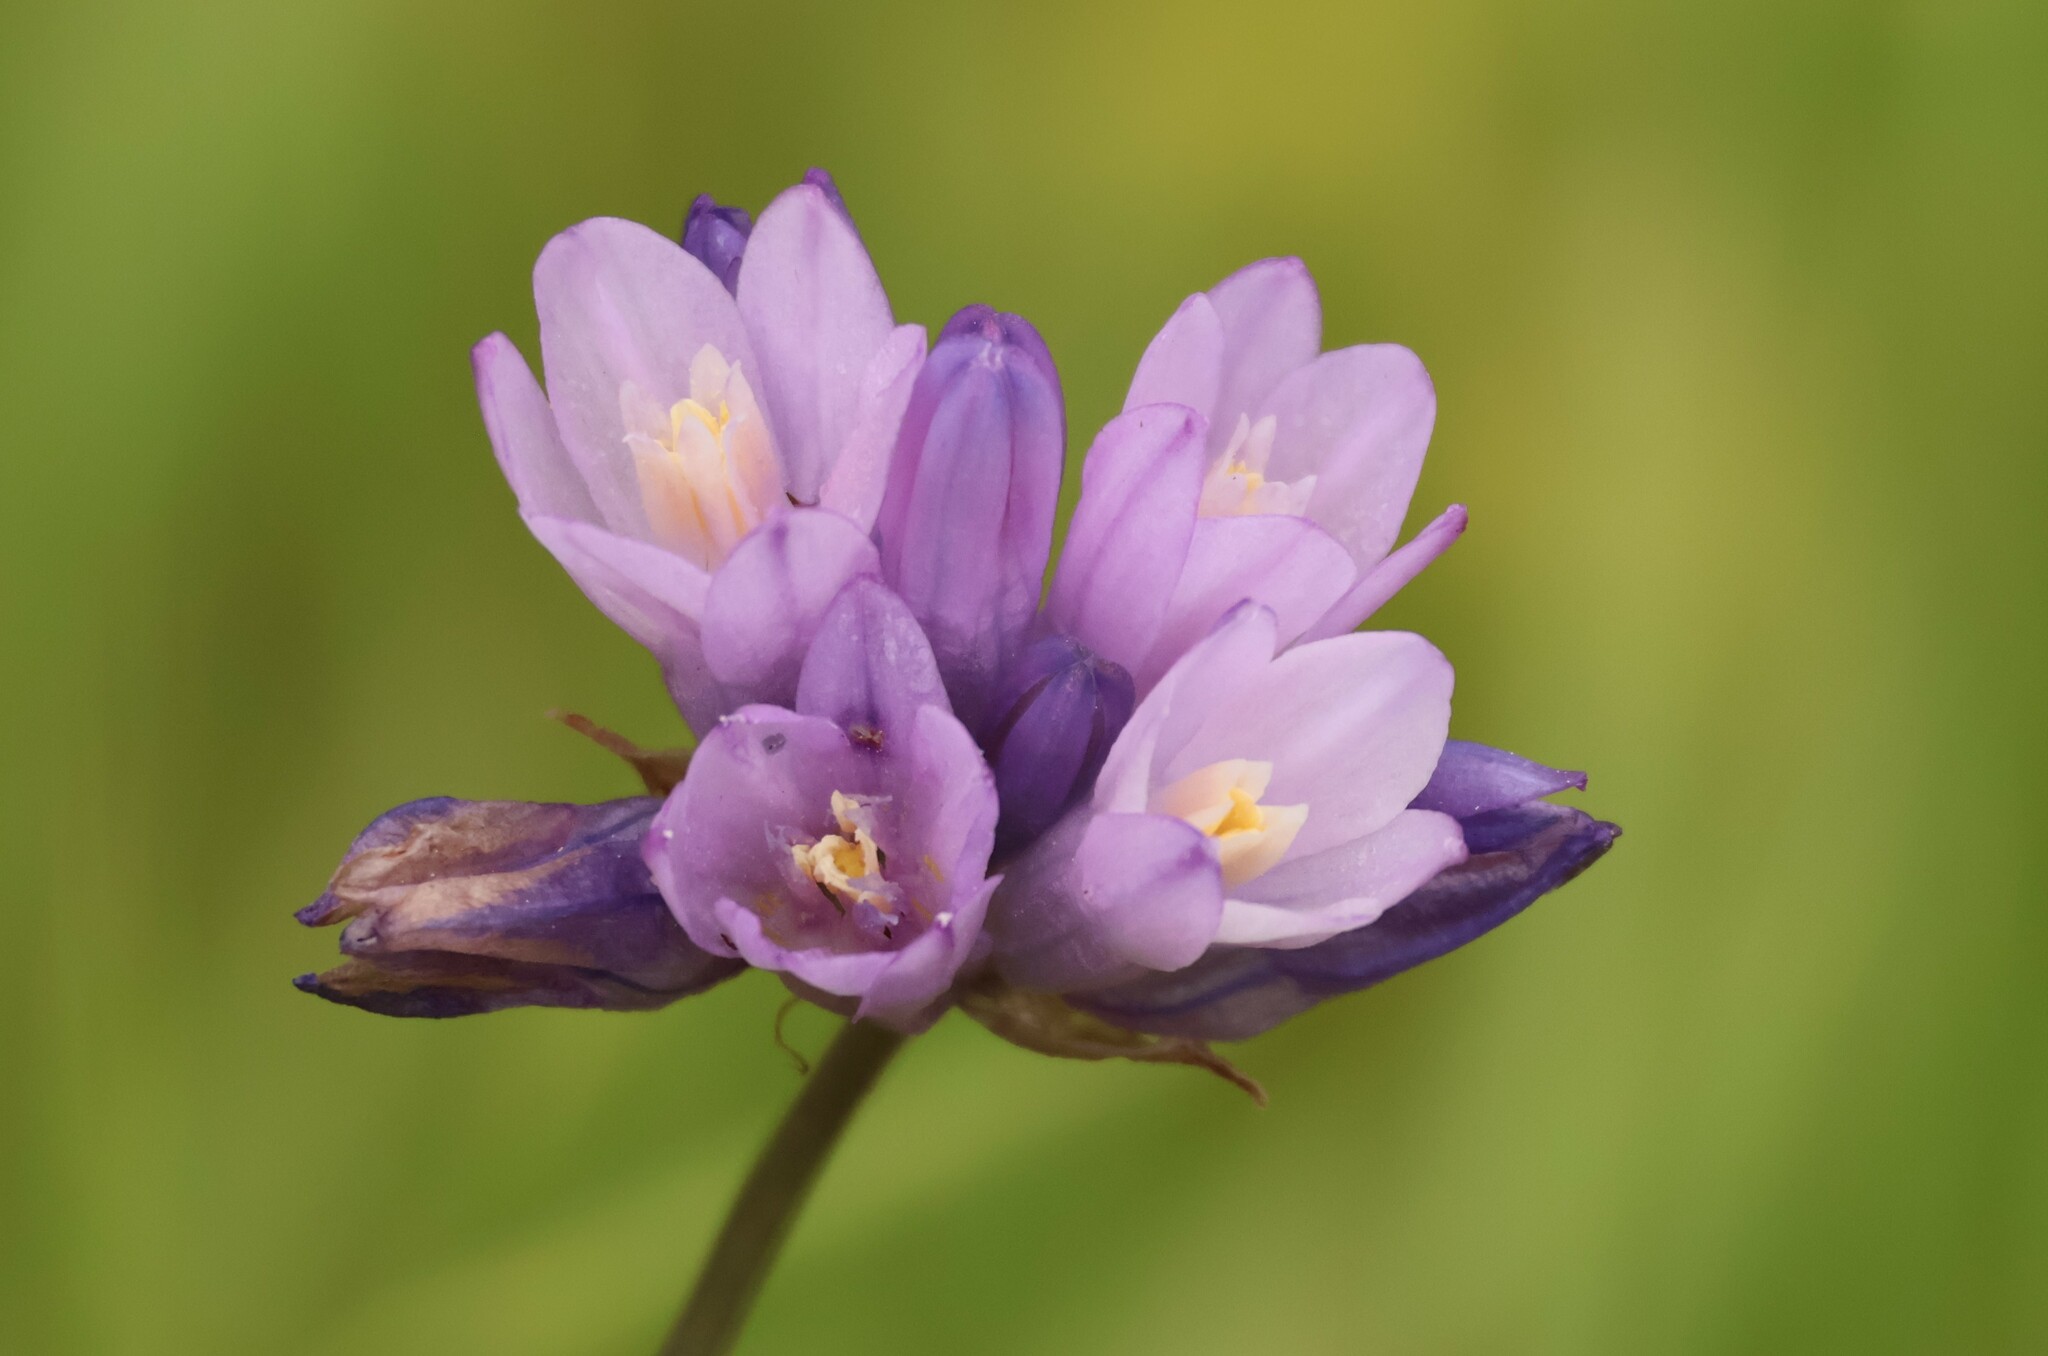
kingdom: Plantae
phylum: Tracheophyta
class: Liliopsida
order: Asparagales
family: Asparagaceae
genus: Dipterostemon
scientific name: Dipterostemon capitatus
